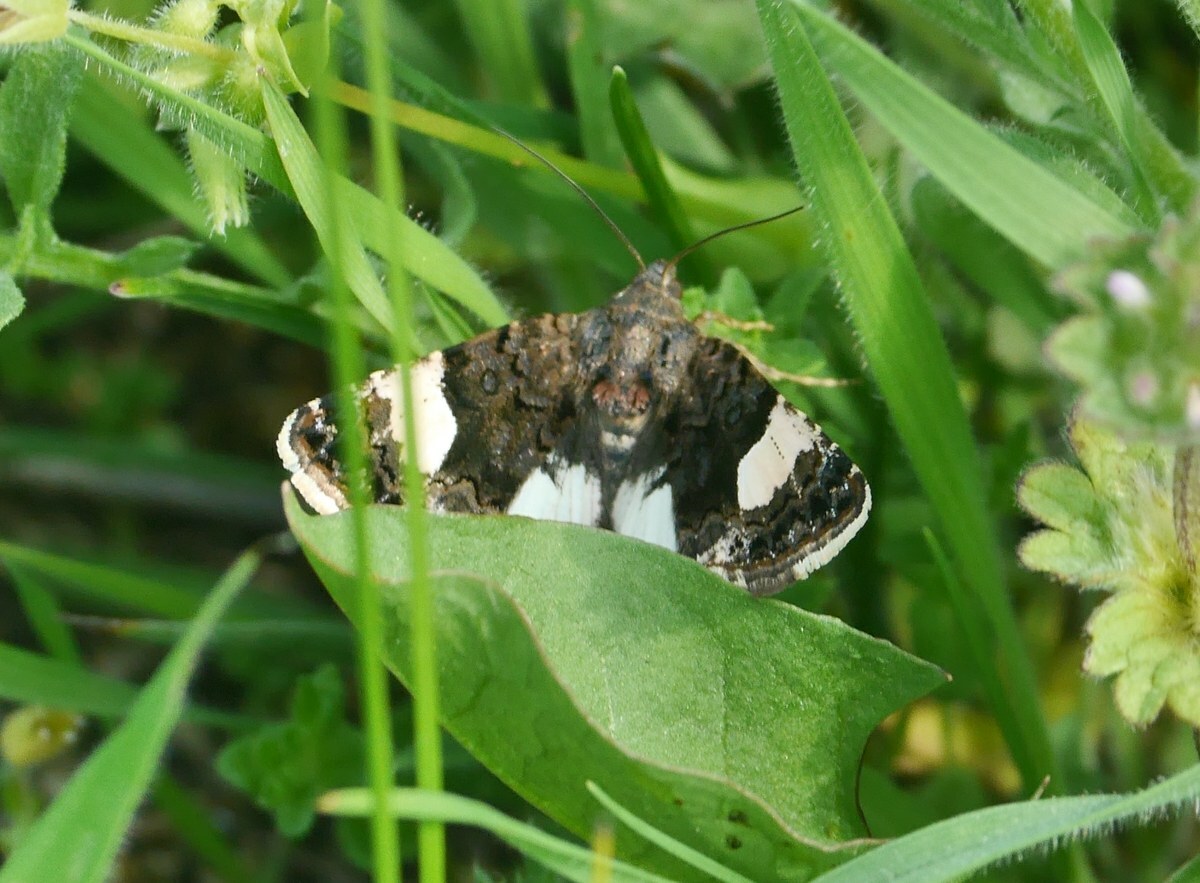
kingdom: Animalia
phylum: Arthropoda
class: Insecta
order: Lepidoptera
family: Erebidae
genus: Tyta
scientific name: Tyta luctuosa
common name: Four-spotted
